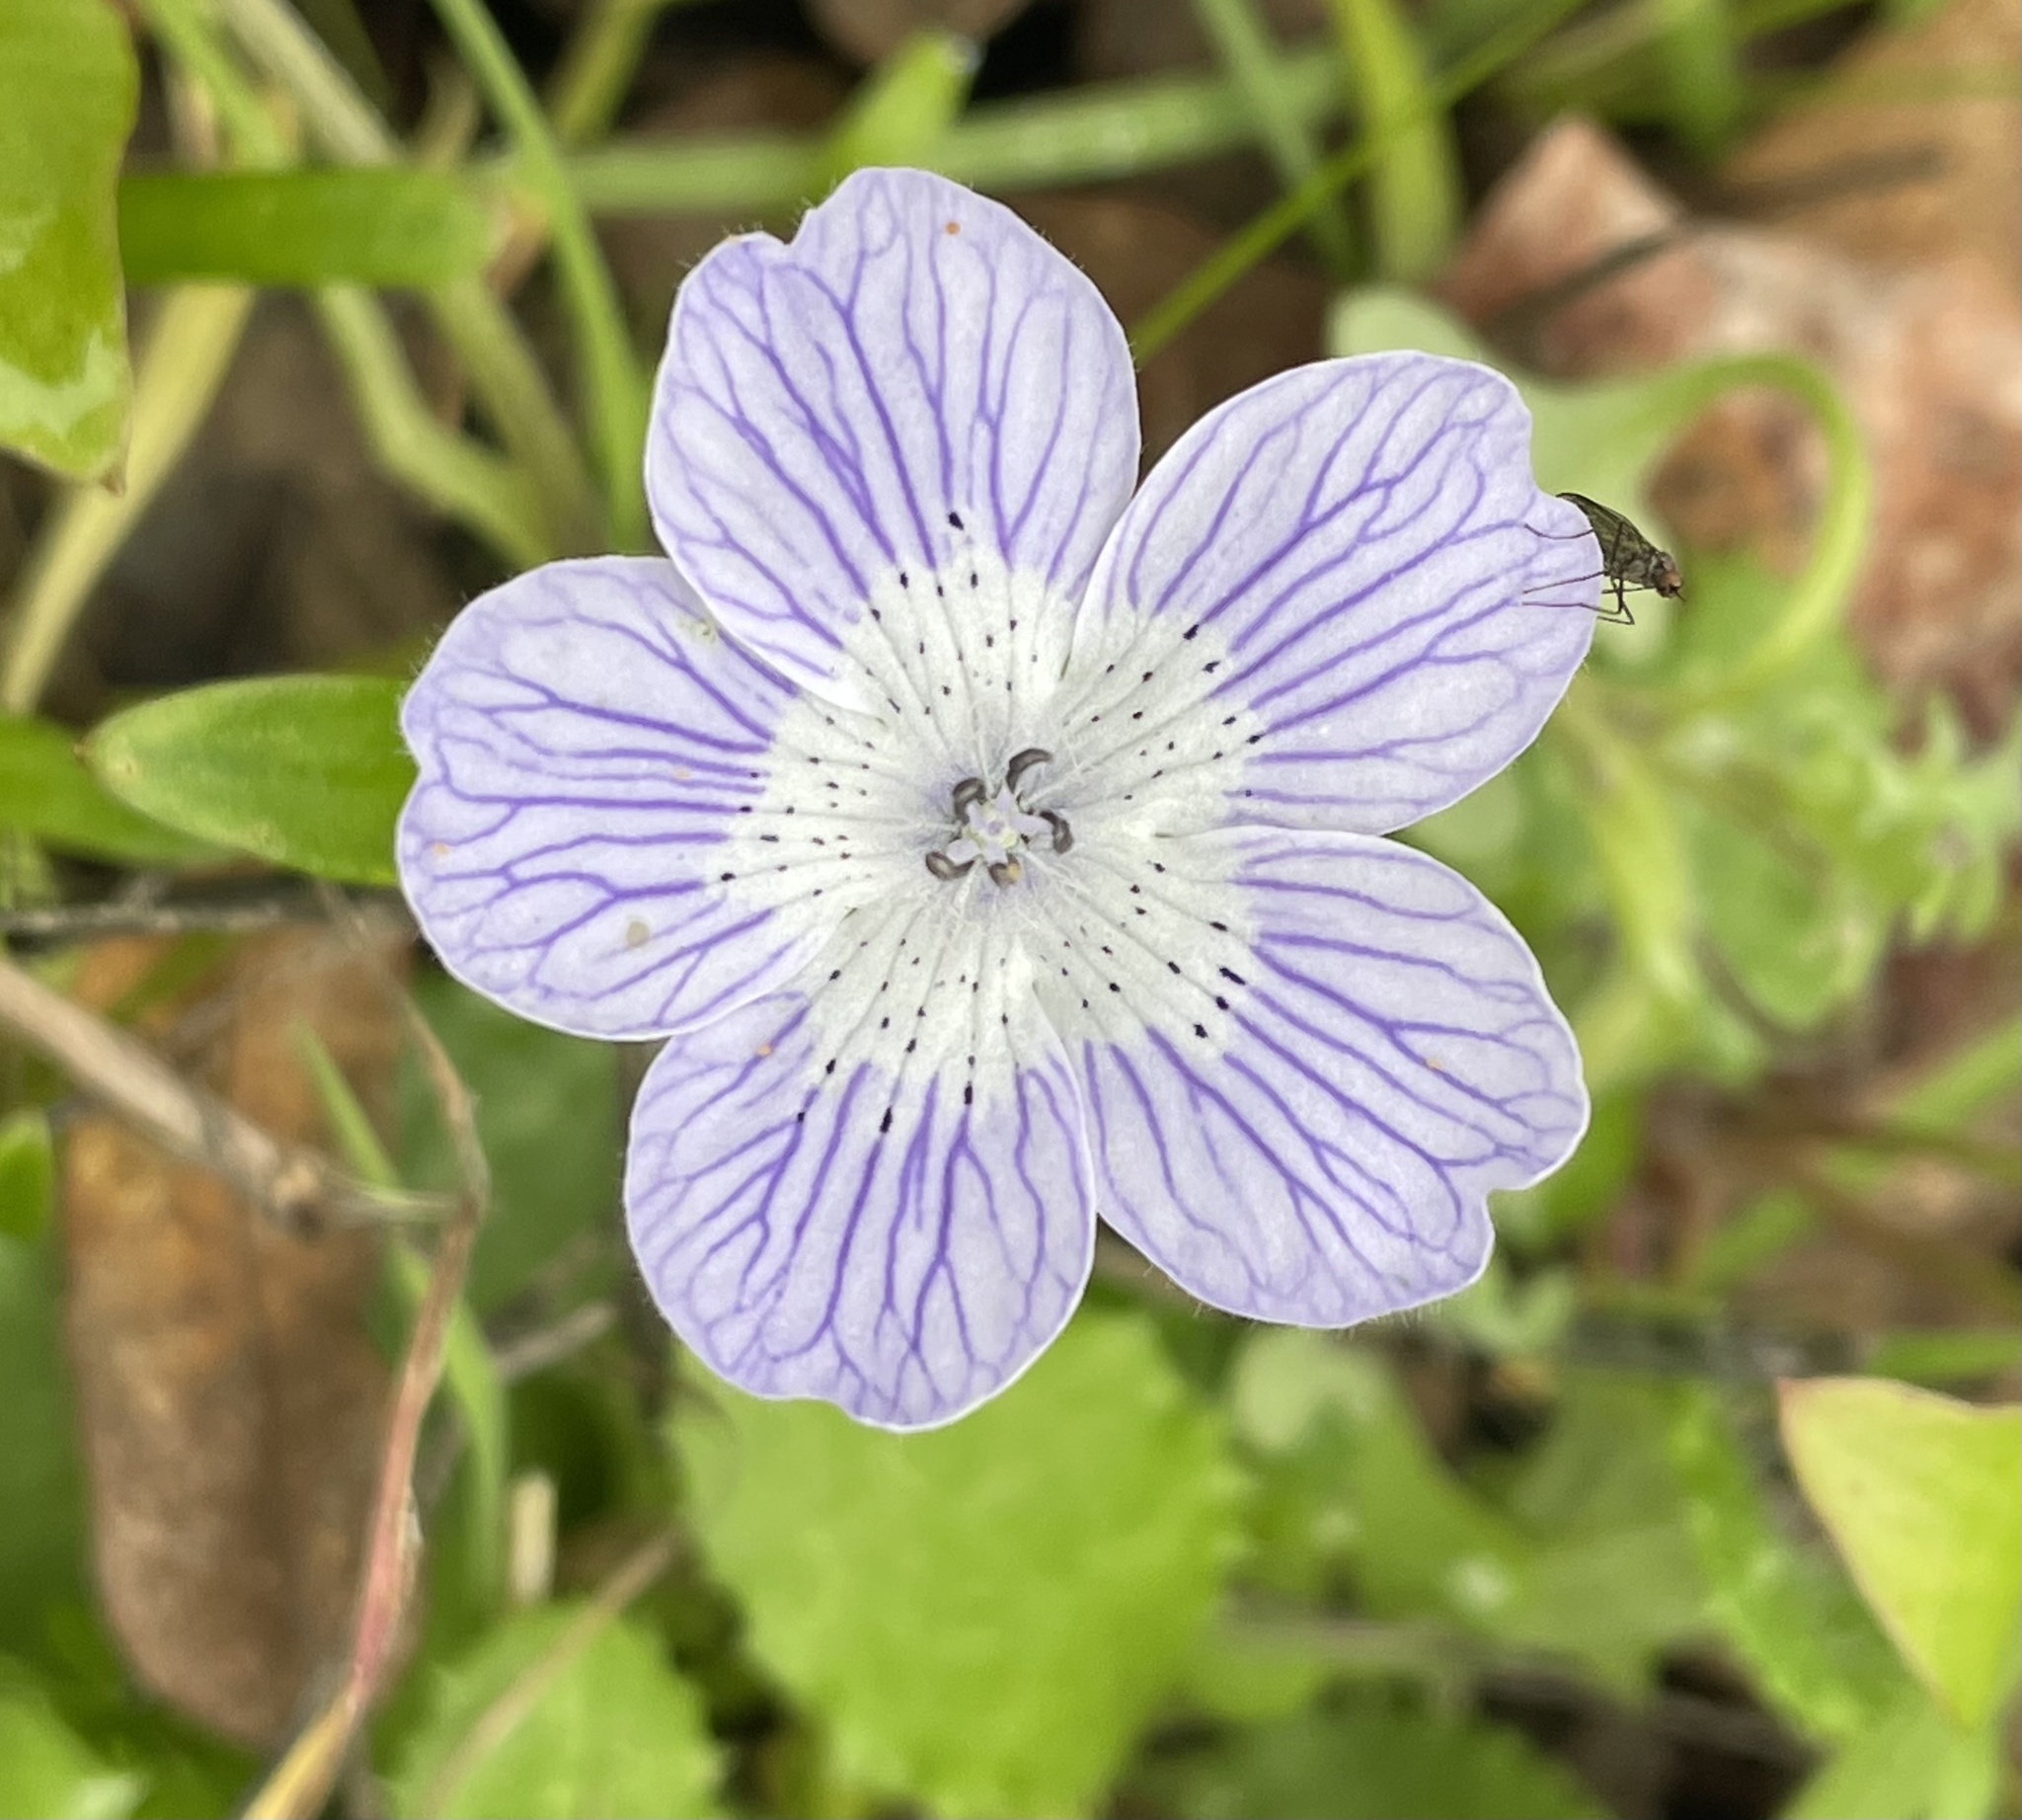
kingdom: Plantae
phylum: Tracheophyta
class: Magnoliopsida
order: Boraginales
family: Hydrophyllaceae
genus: Nemophila
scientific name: Nemophila menziesii
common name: Baby's-blue-eyes
